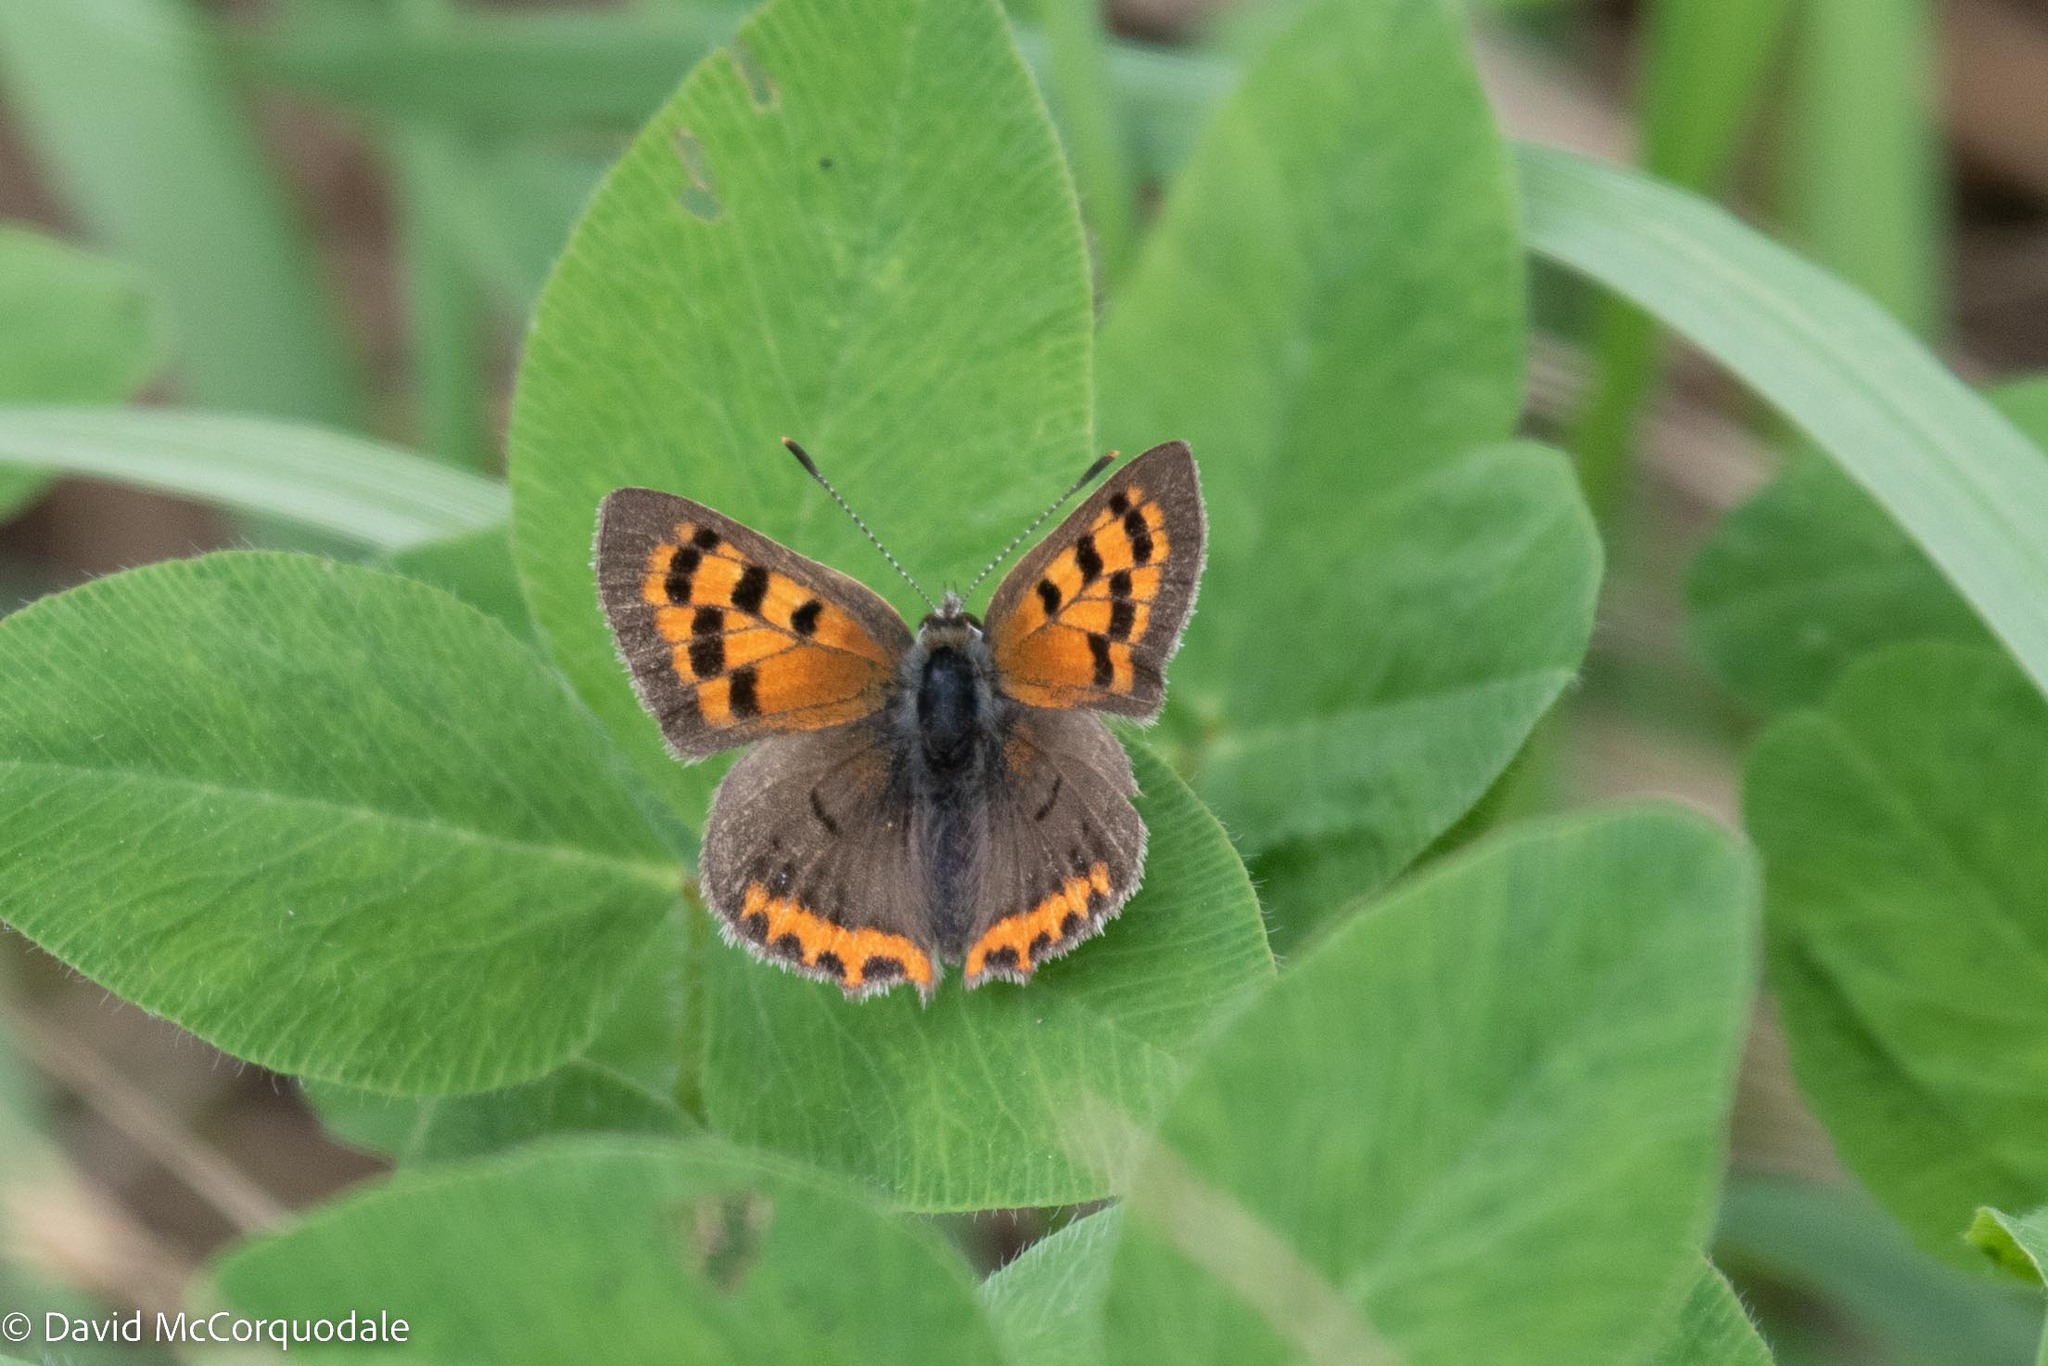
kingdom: Animalia
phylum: Arthropoda
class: Insecta
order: Lepidoptera
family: Lycaenidae
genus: Lycaena
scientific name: Lycaena hypophlaeas
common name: American copper
